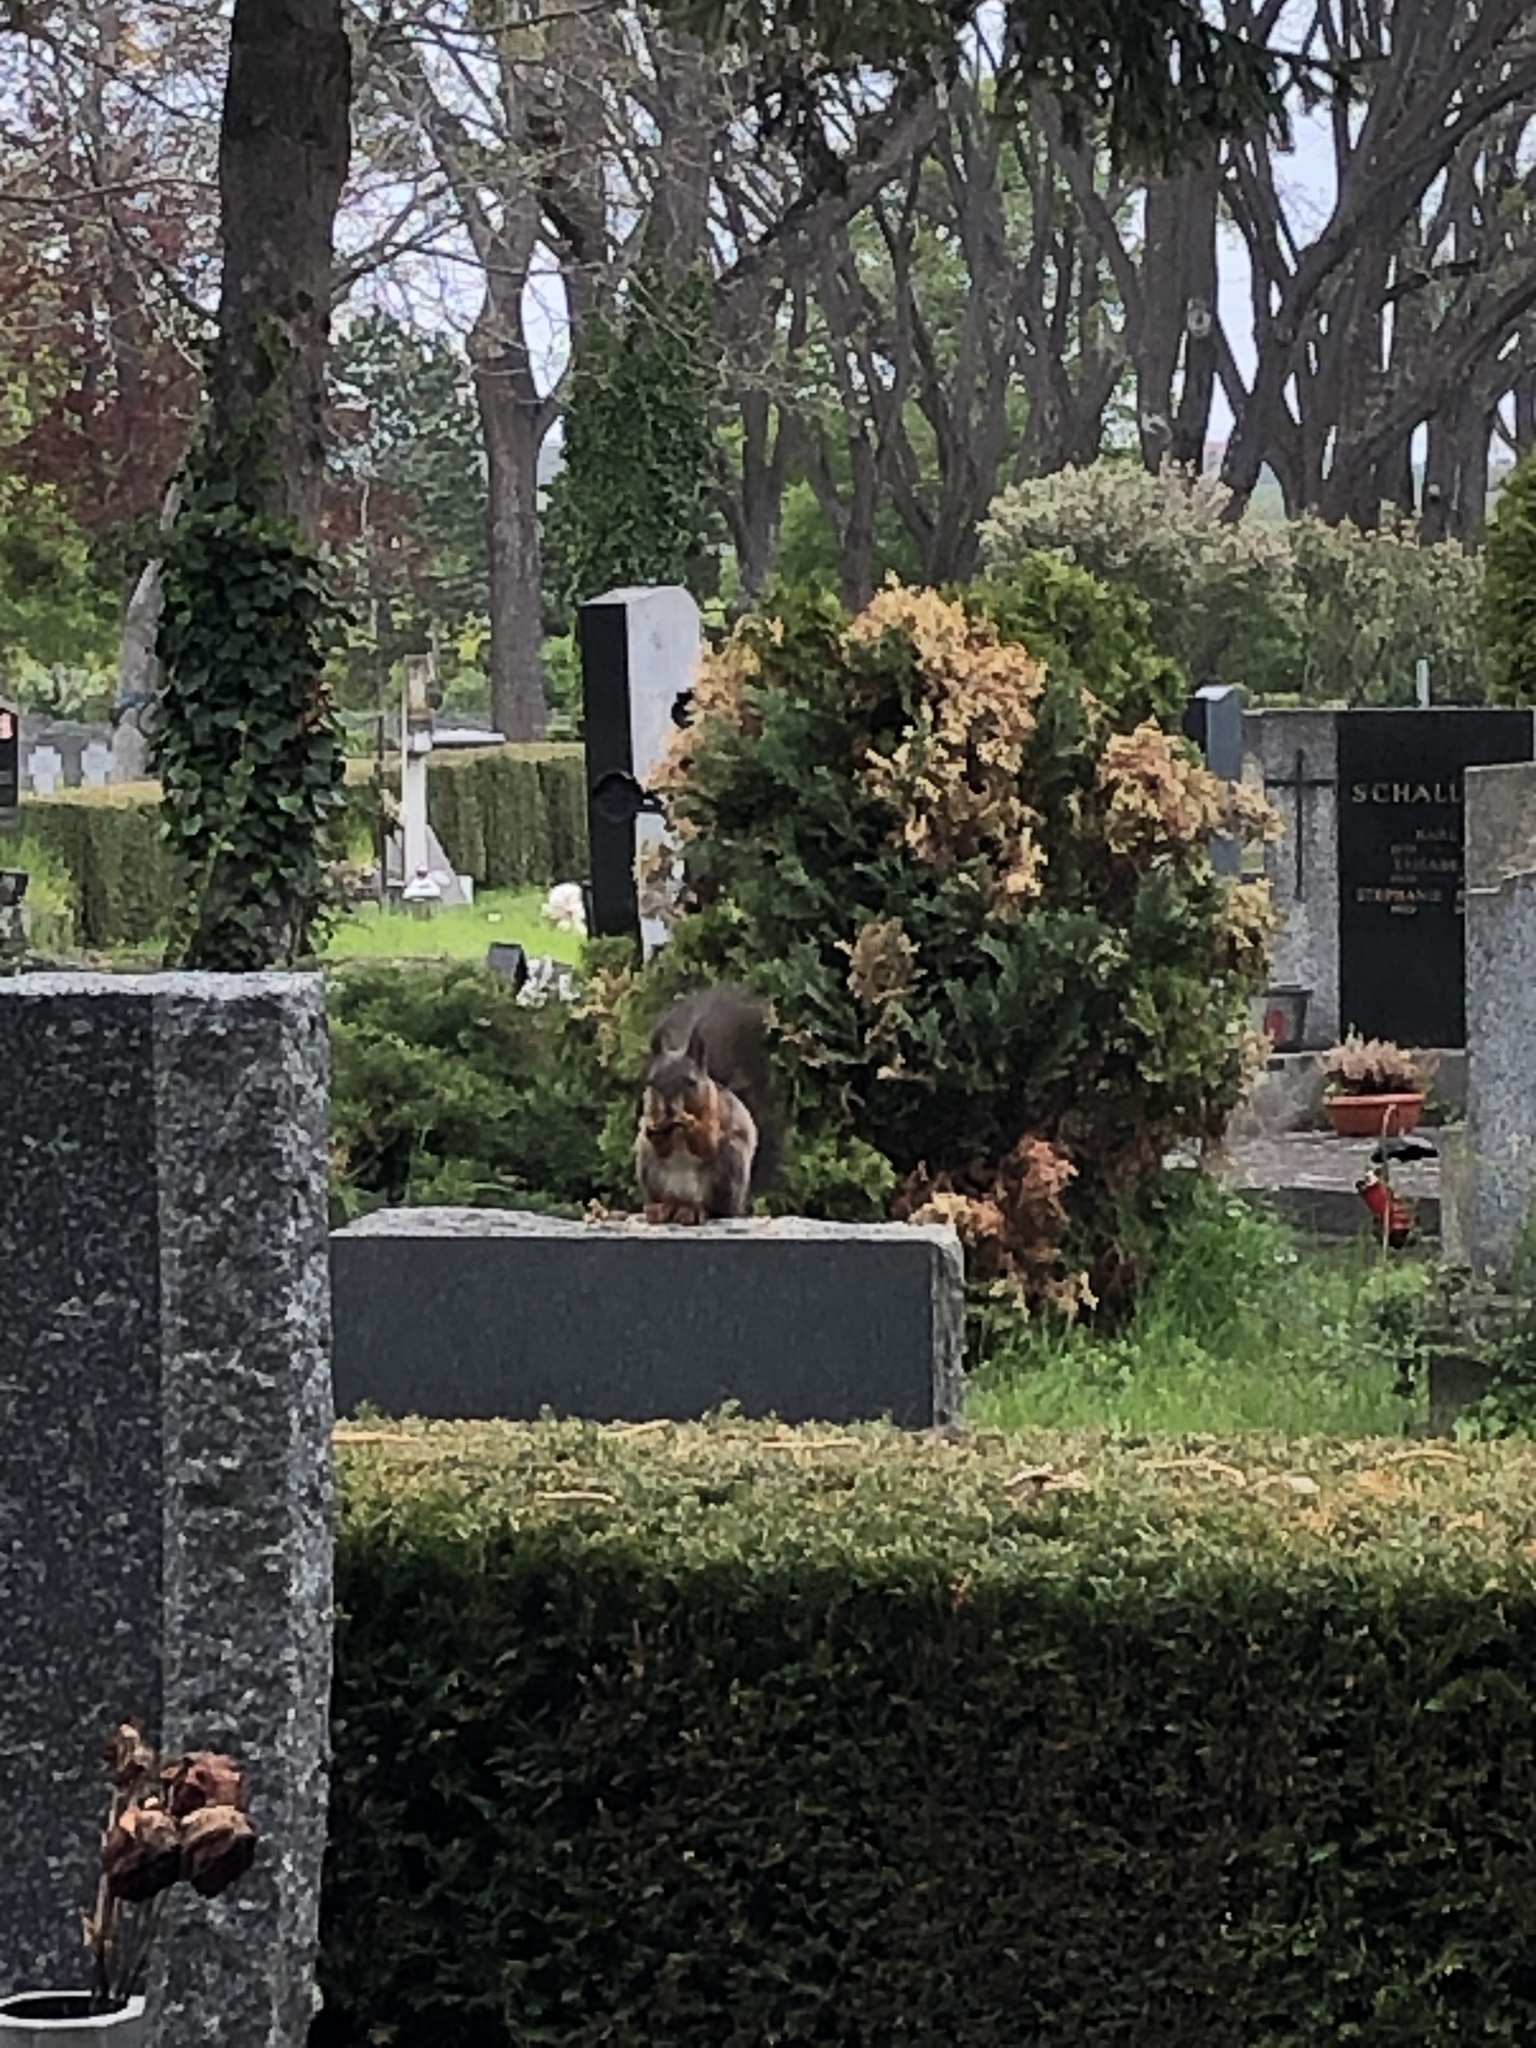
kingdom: Animalia
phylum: Chordata
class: Mammalia
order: Rodentia
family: Sciuridae
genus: Sciurus
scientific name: Sciurus vulgaris
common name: Eurasian red squirrel
